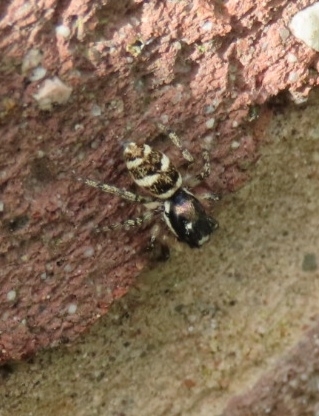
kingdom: Animalia
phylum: Arthropoda
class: Arachnida
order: Araneae
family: Salticidae
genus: Salticus
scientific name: Salticus scenicus
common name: Zebra jumper
